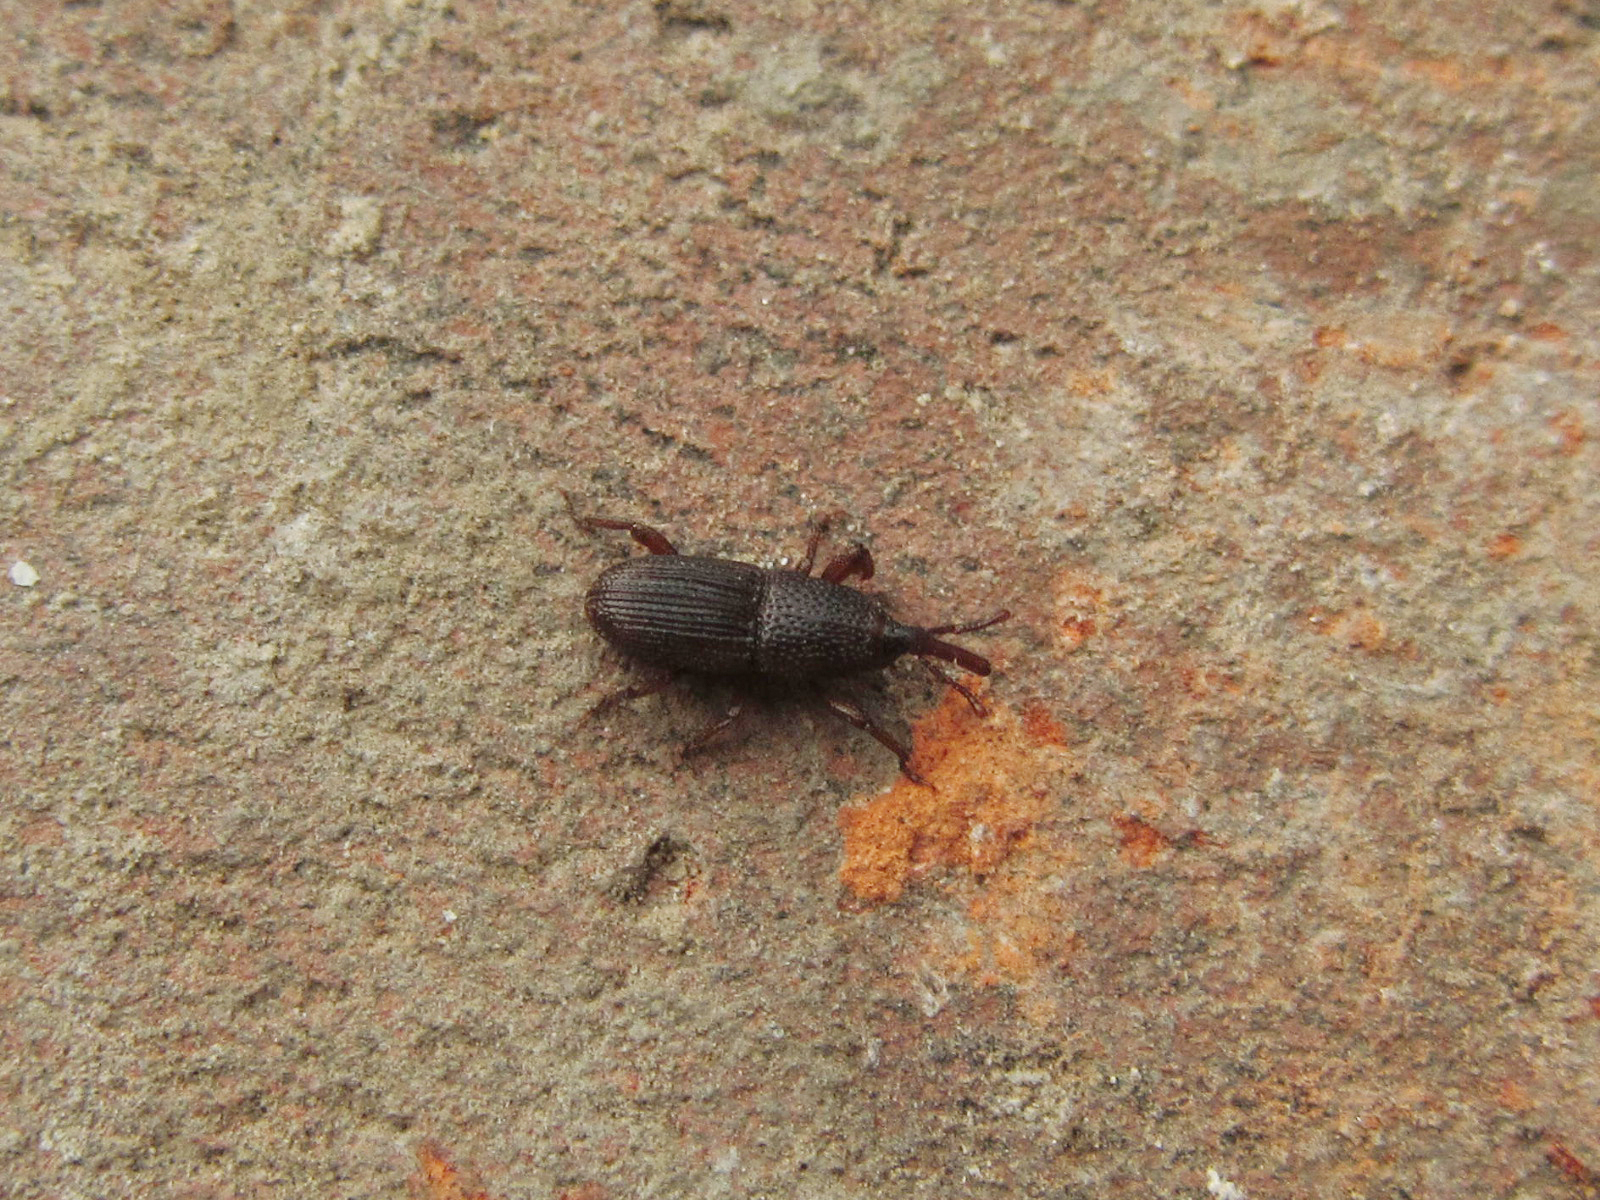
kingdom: Animalia
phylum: Arthropoda
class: Insecta
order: Coleoptera
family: Dryophthoridae
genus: Sitophilus
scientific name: Sitophilus granarius
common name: Granary weevil
